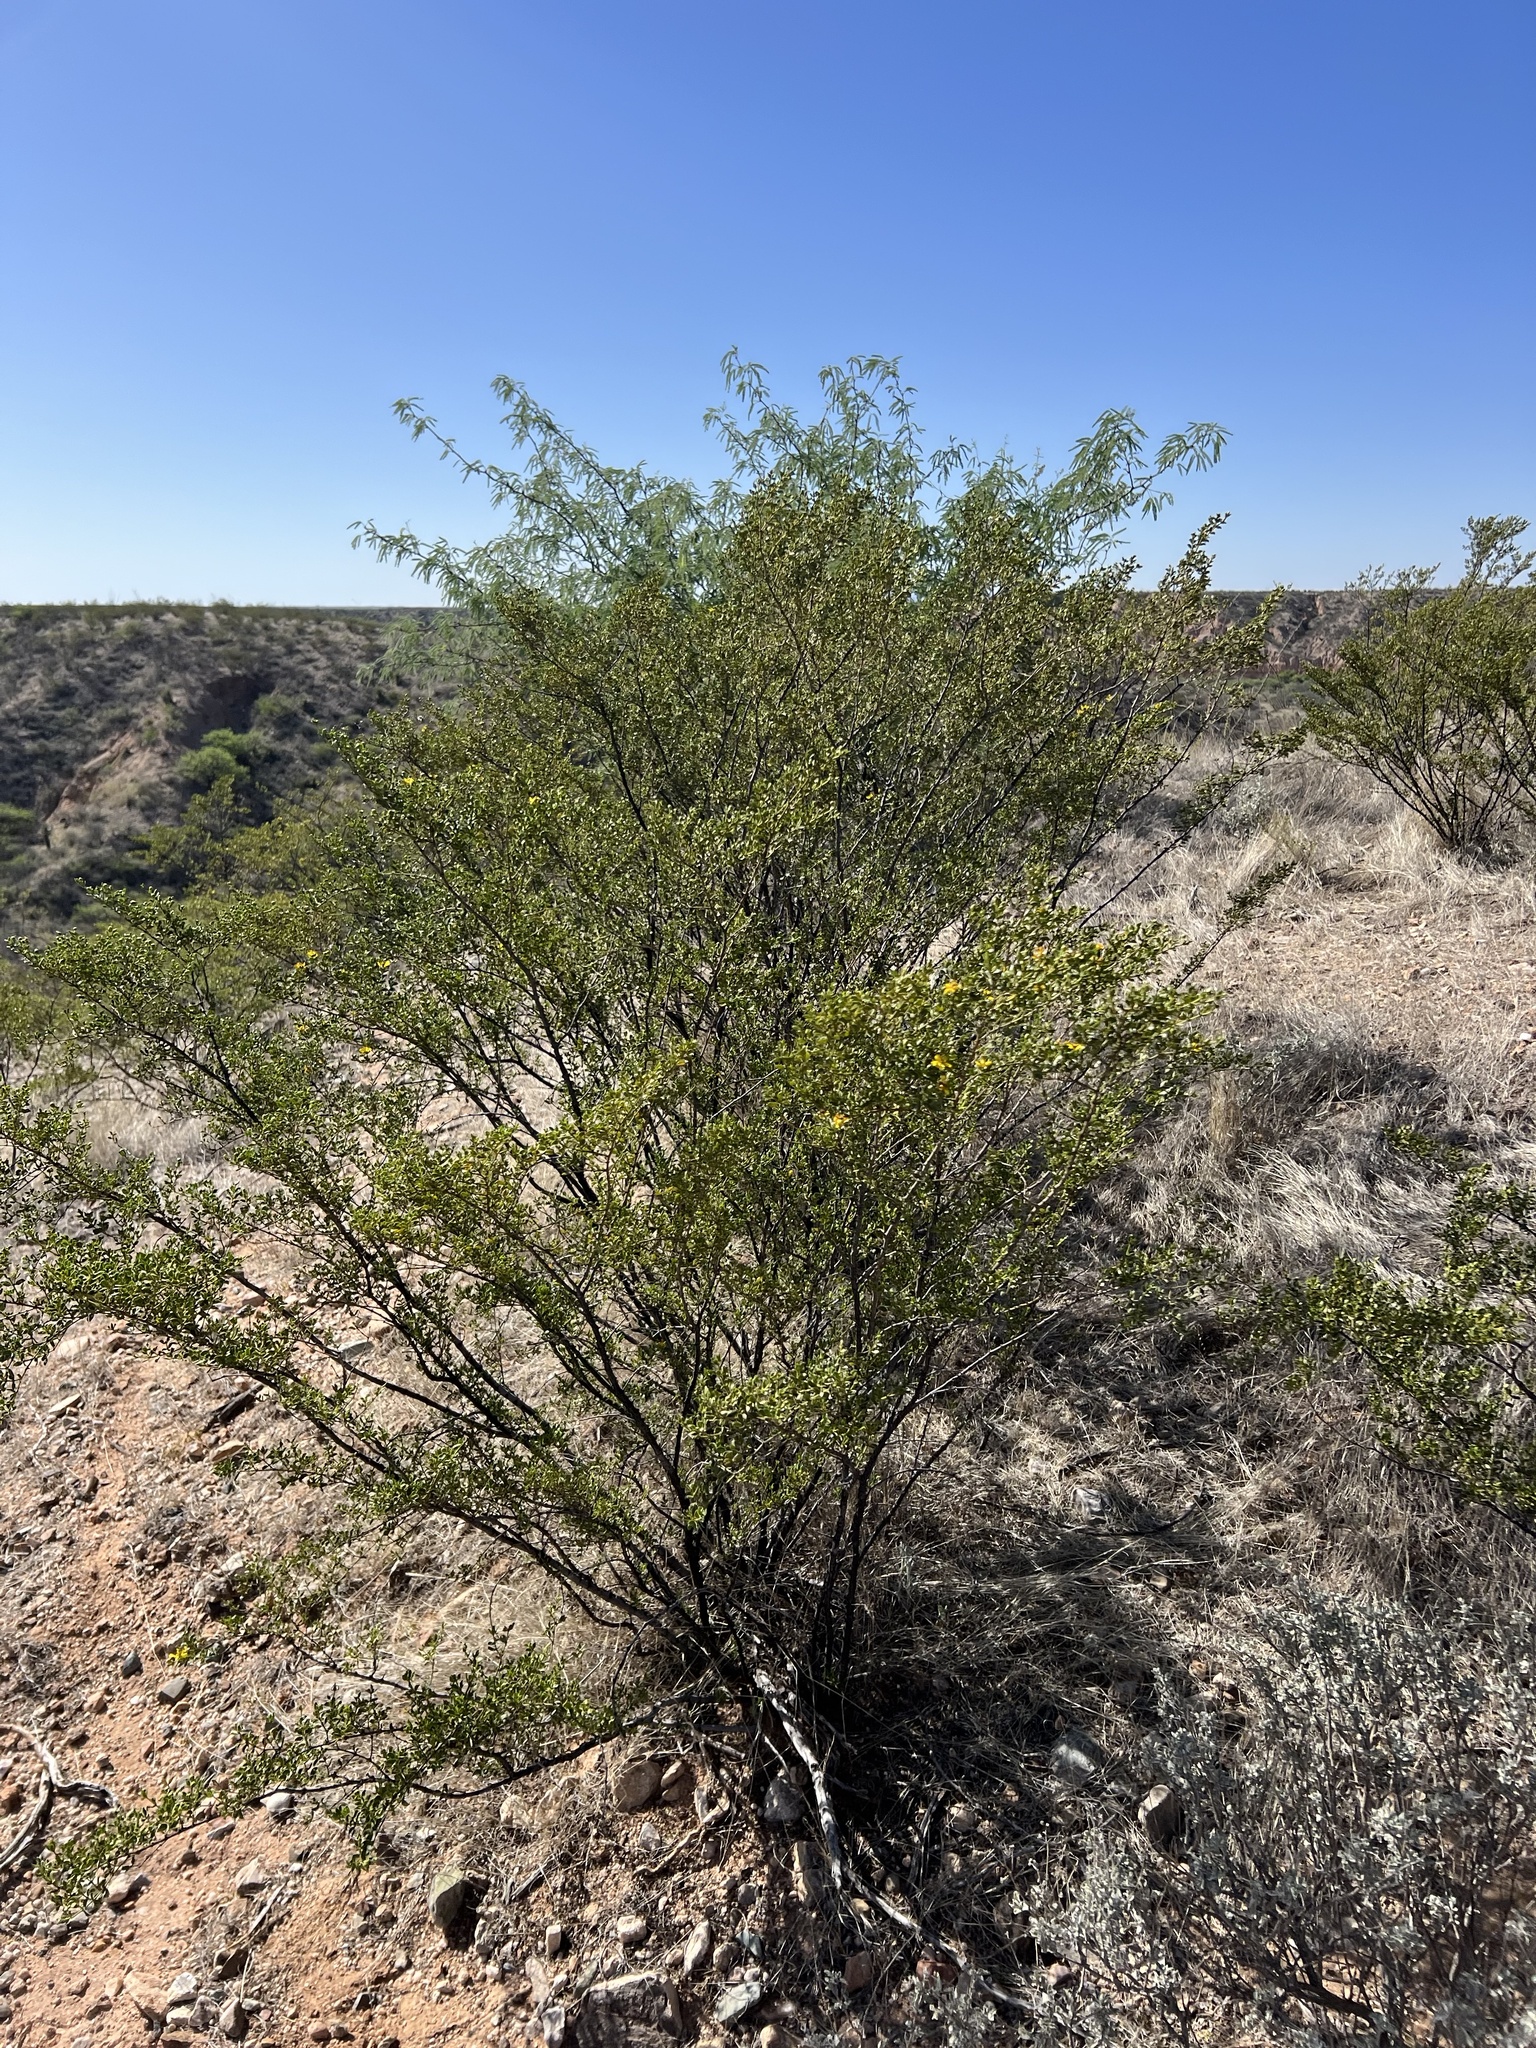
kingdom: Plantae
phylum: Tracheophyta
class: Magnoliopsida
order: Zygophyllales
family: Zygophyllaceae
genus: Larrea
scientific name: Larrea tridentata
